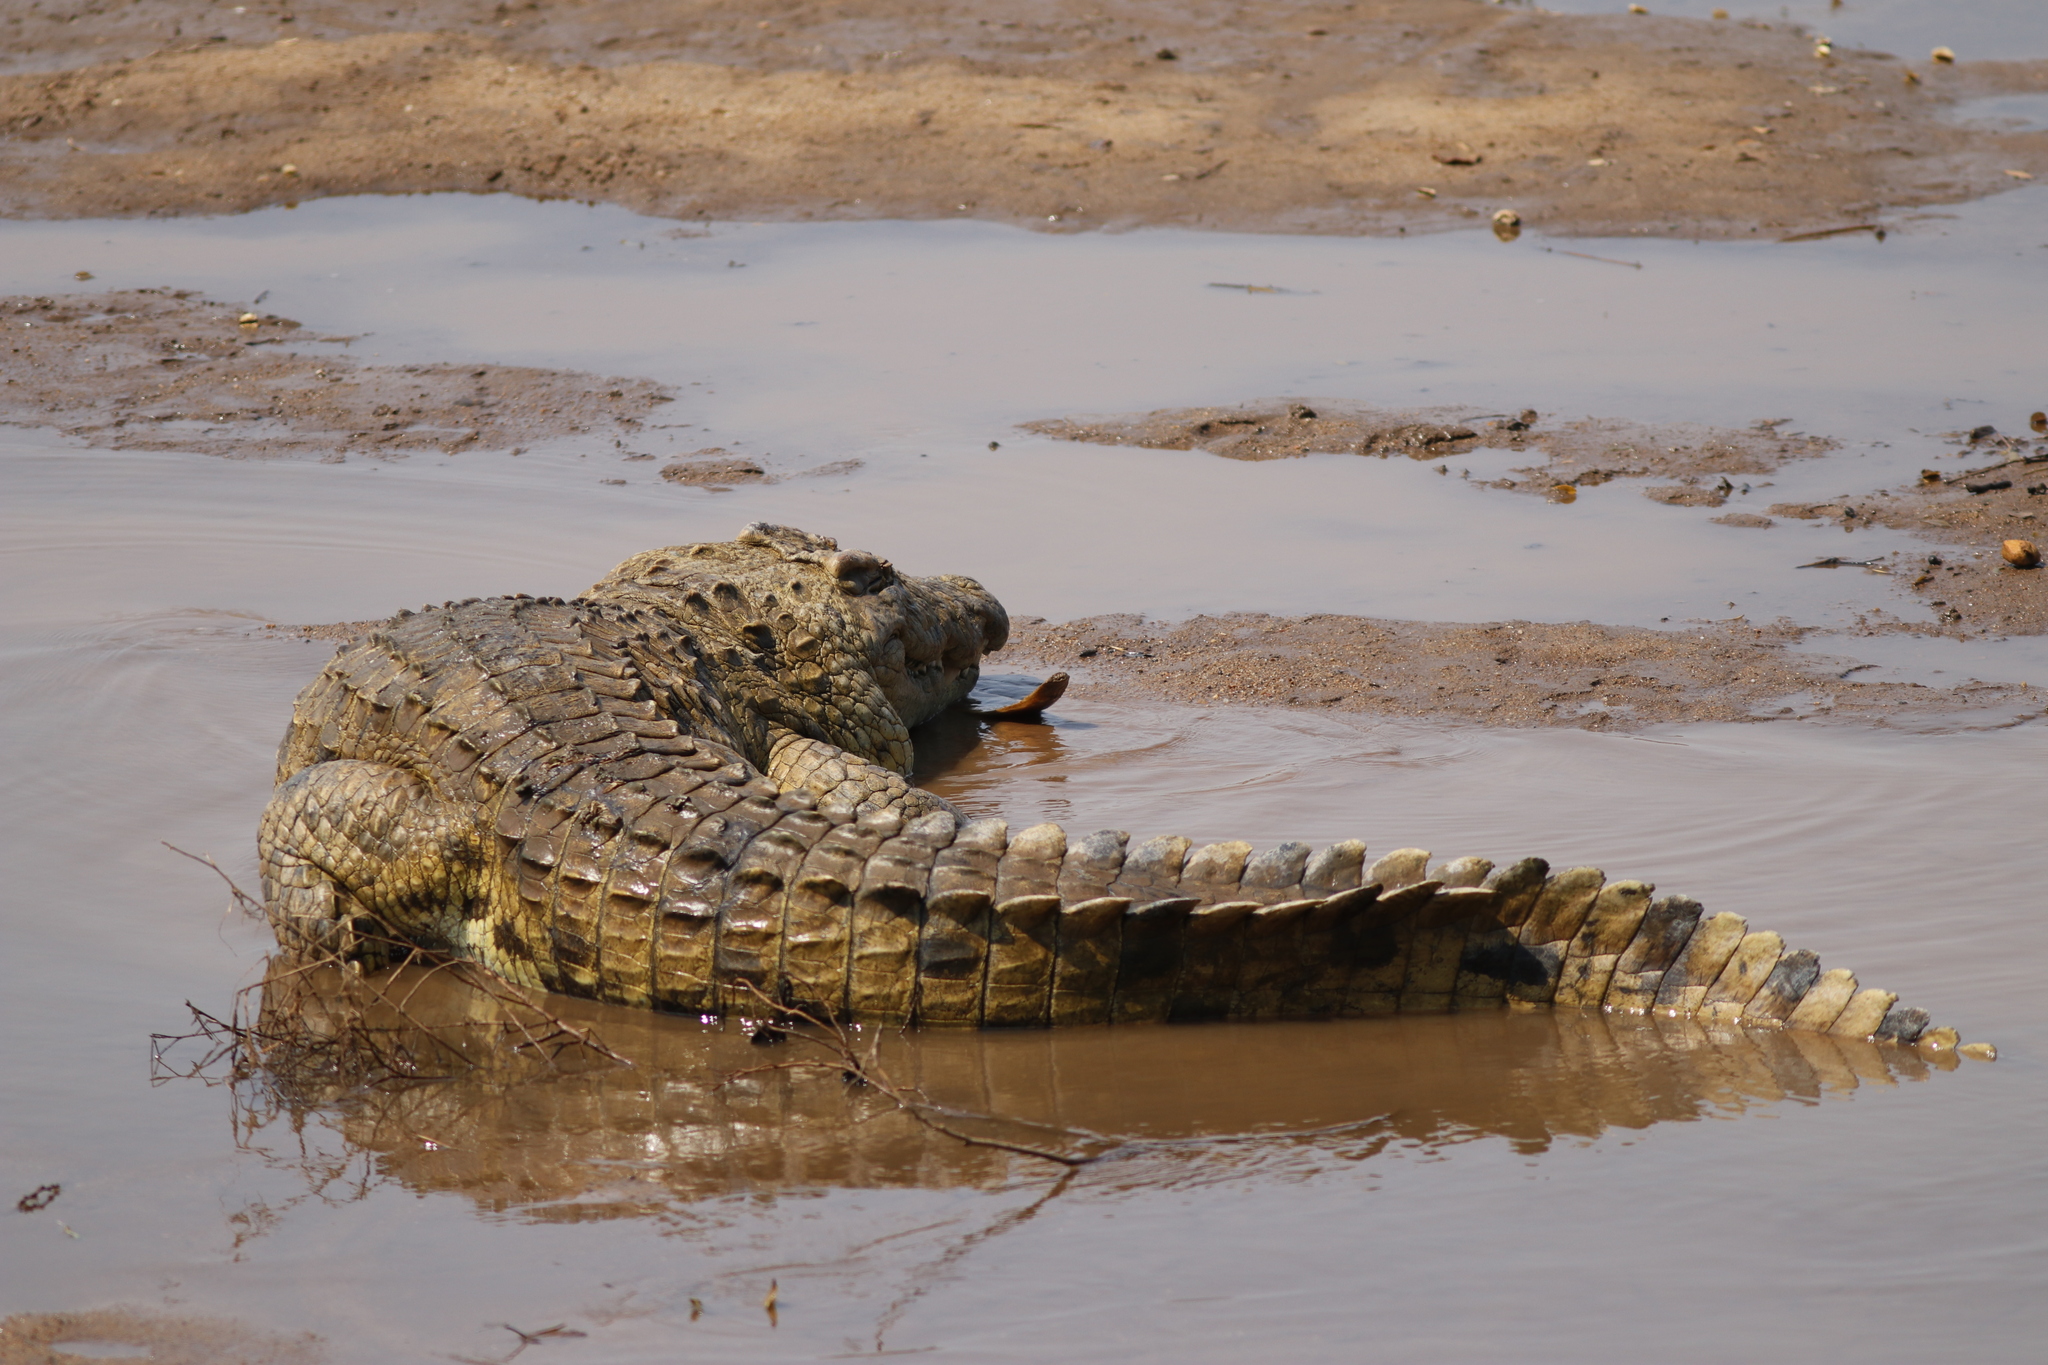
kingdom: Animalia
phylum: Chordata
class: Crocodylia
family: Crocodylidae
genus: Crocodylus
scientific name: Crocodylus niloticus
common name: Nile crocodile
